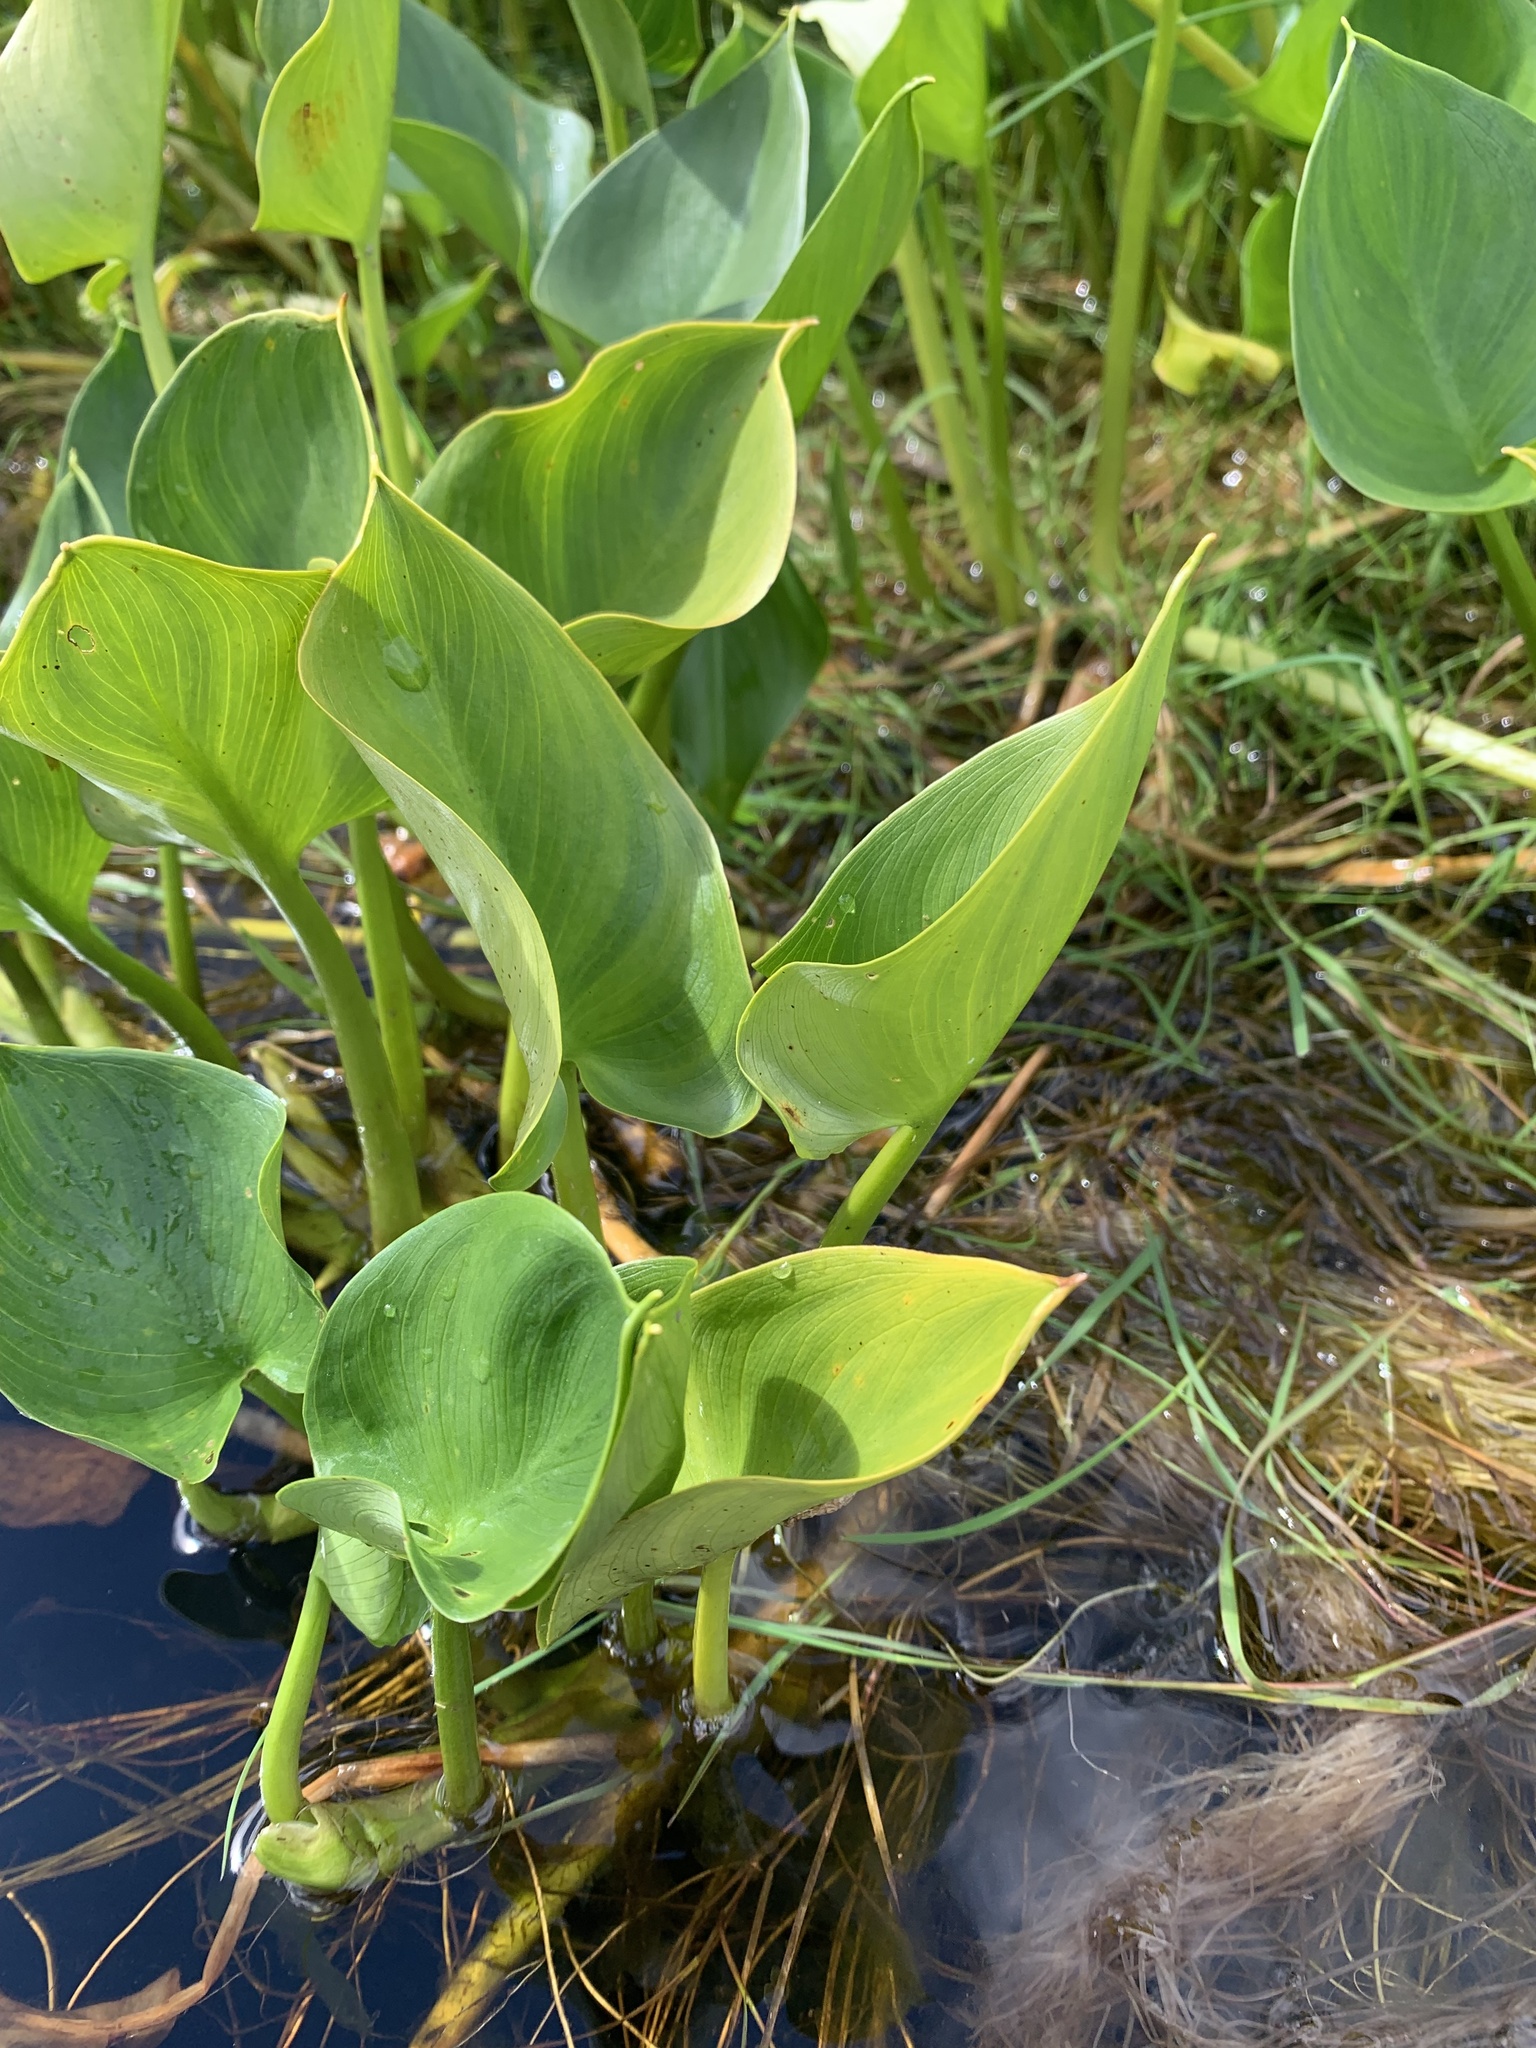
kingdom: Plantae
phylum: Tracheophyta
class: Liliopsida
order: Alismatales
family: Araceae
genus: Calla
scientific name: Calla palustris
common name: Bog arum
